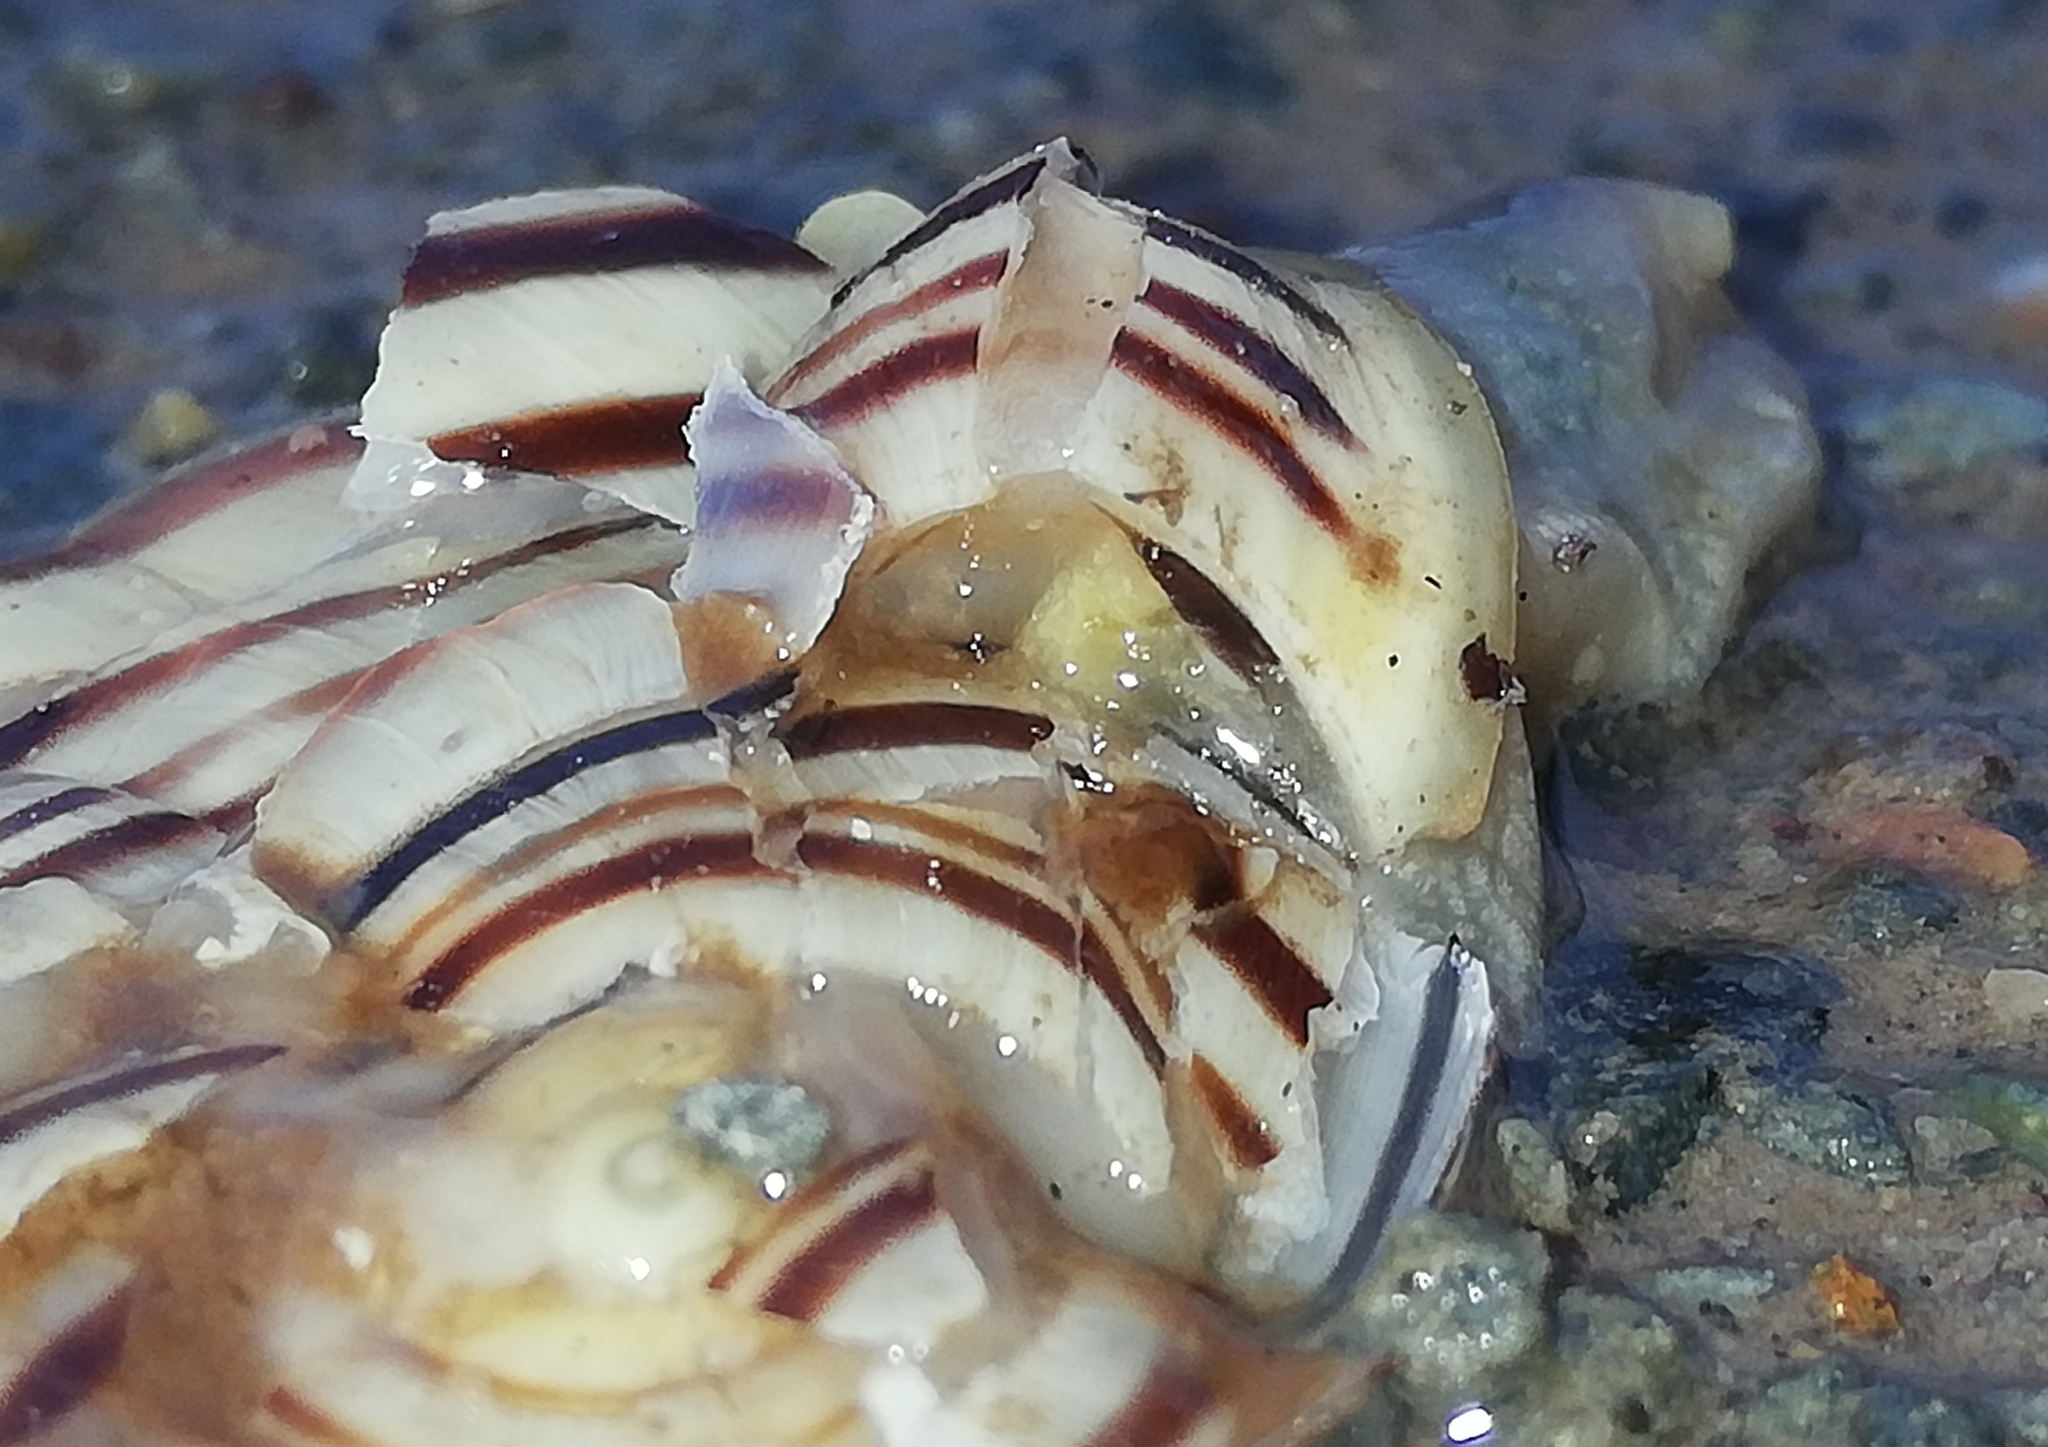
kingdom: Animalia
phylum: Mollusca
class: Gastropoda
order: Stylommatophora
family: Helicidae
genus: Cepaea
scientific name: Cepaea hortensis
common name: White-lip gardensnail
